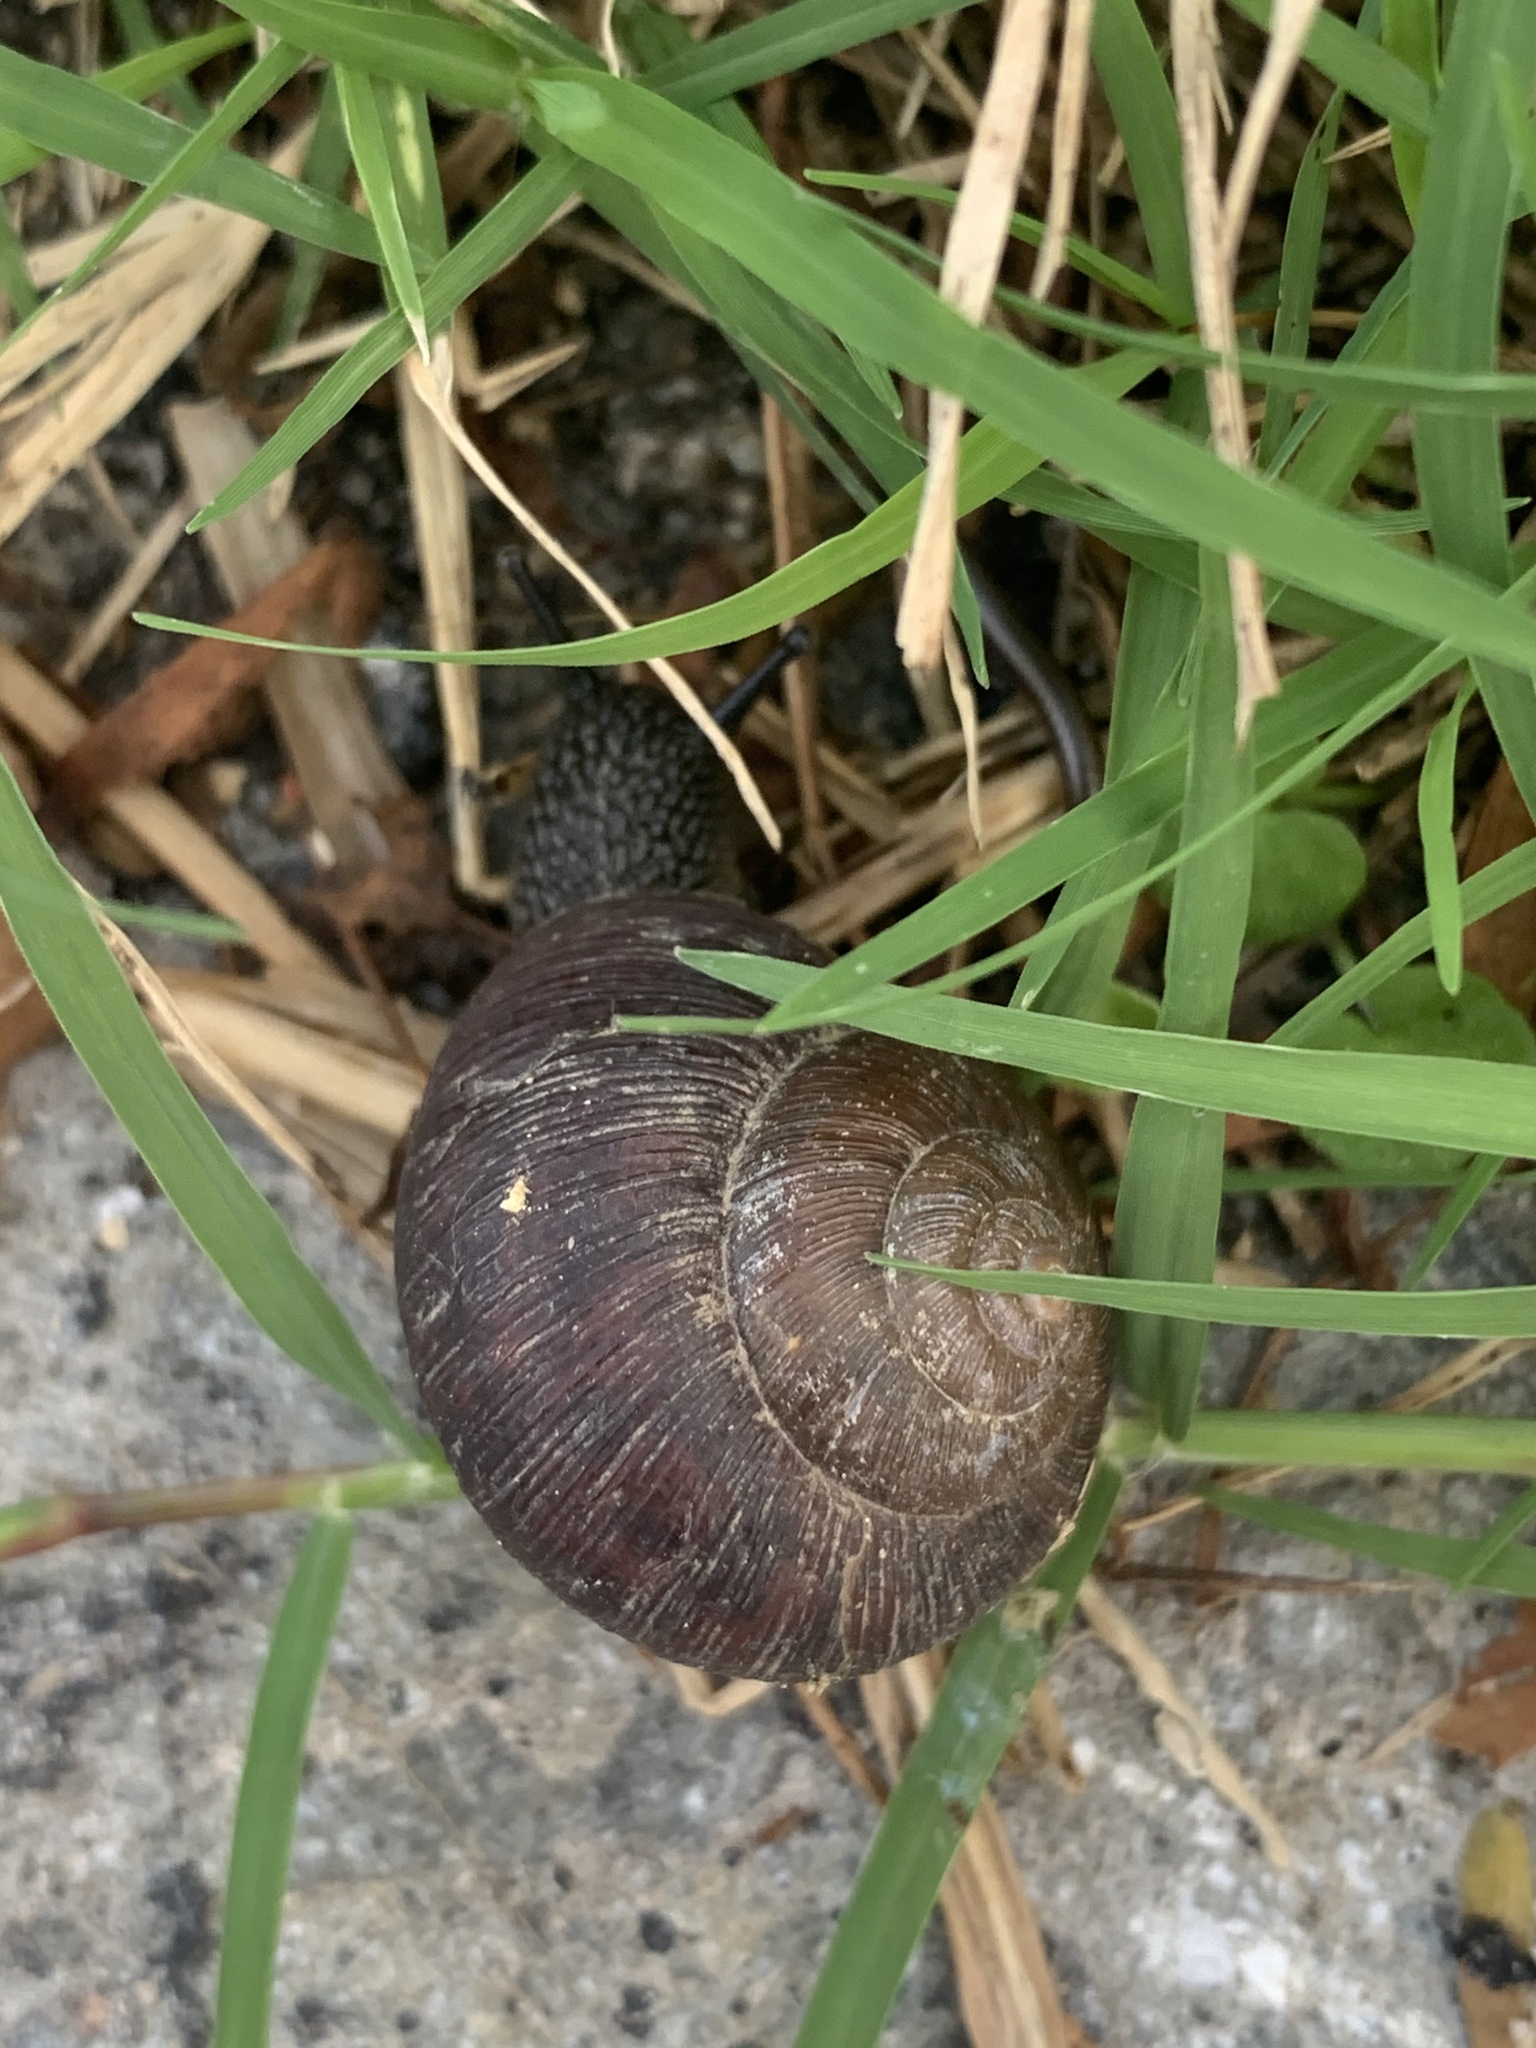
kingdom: Animalia
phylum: Mollusca
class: Gastropoda
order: Stylommatophora
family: Camaenidae
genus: Acusta
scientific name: Acusta despecta
